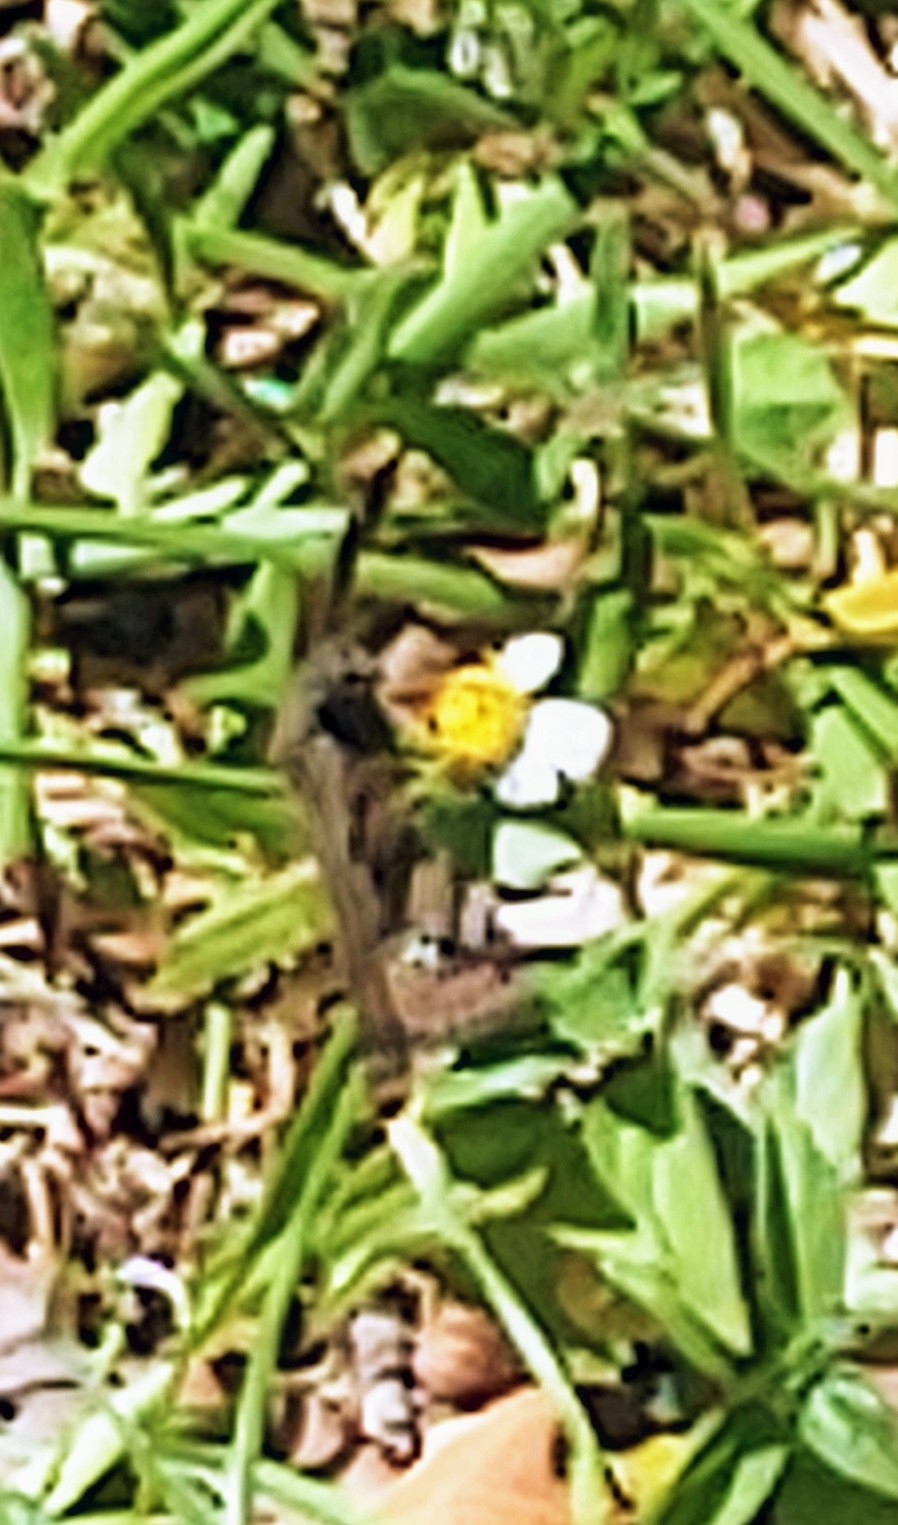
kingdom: Animalia
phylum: Arthropoda
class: Insecta
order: Lepidoptera
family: Hesperiidae
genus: Erynnis
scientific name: Erynnis horatius
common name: Horace's duskywing
